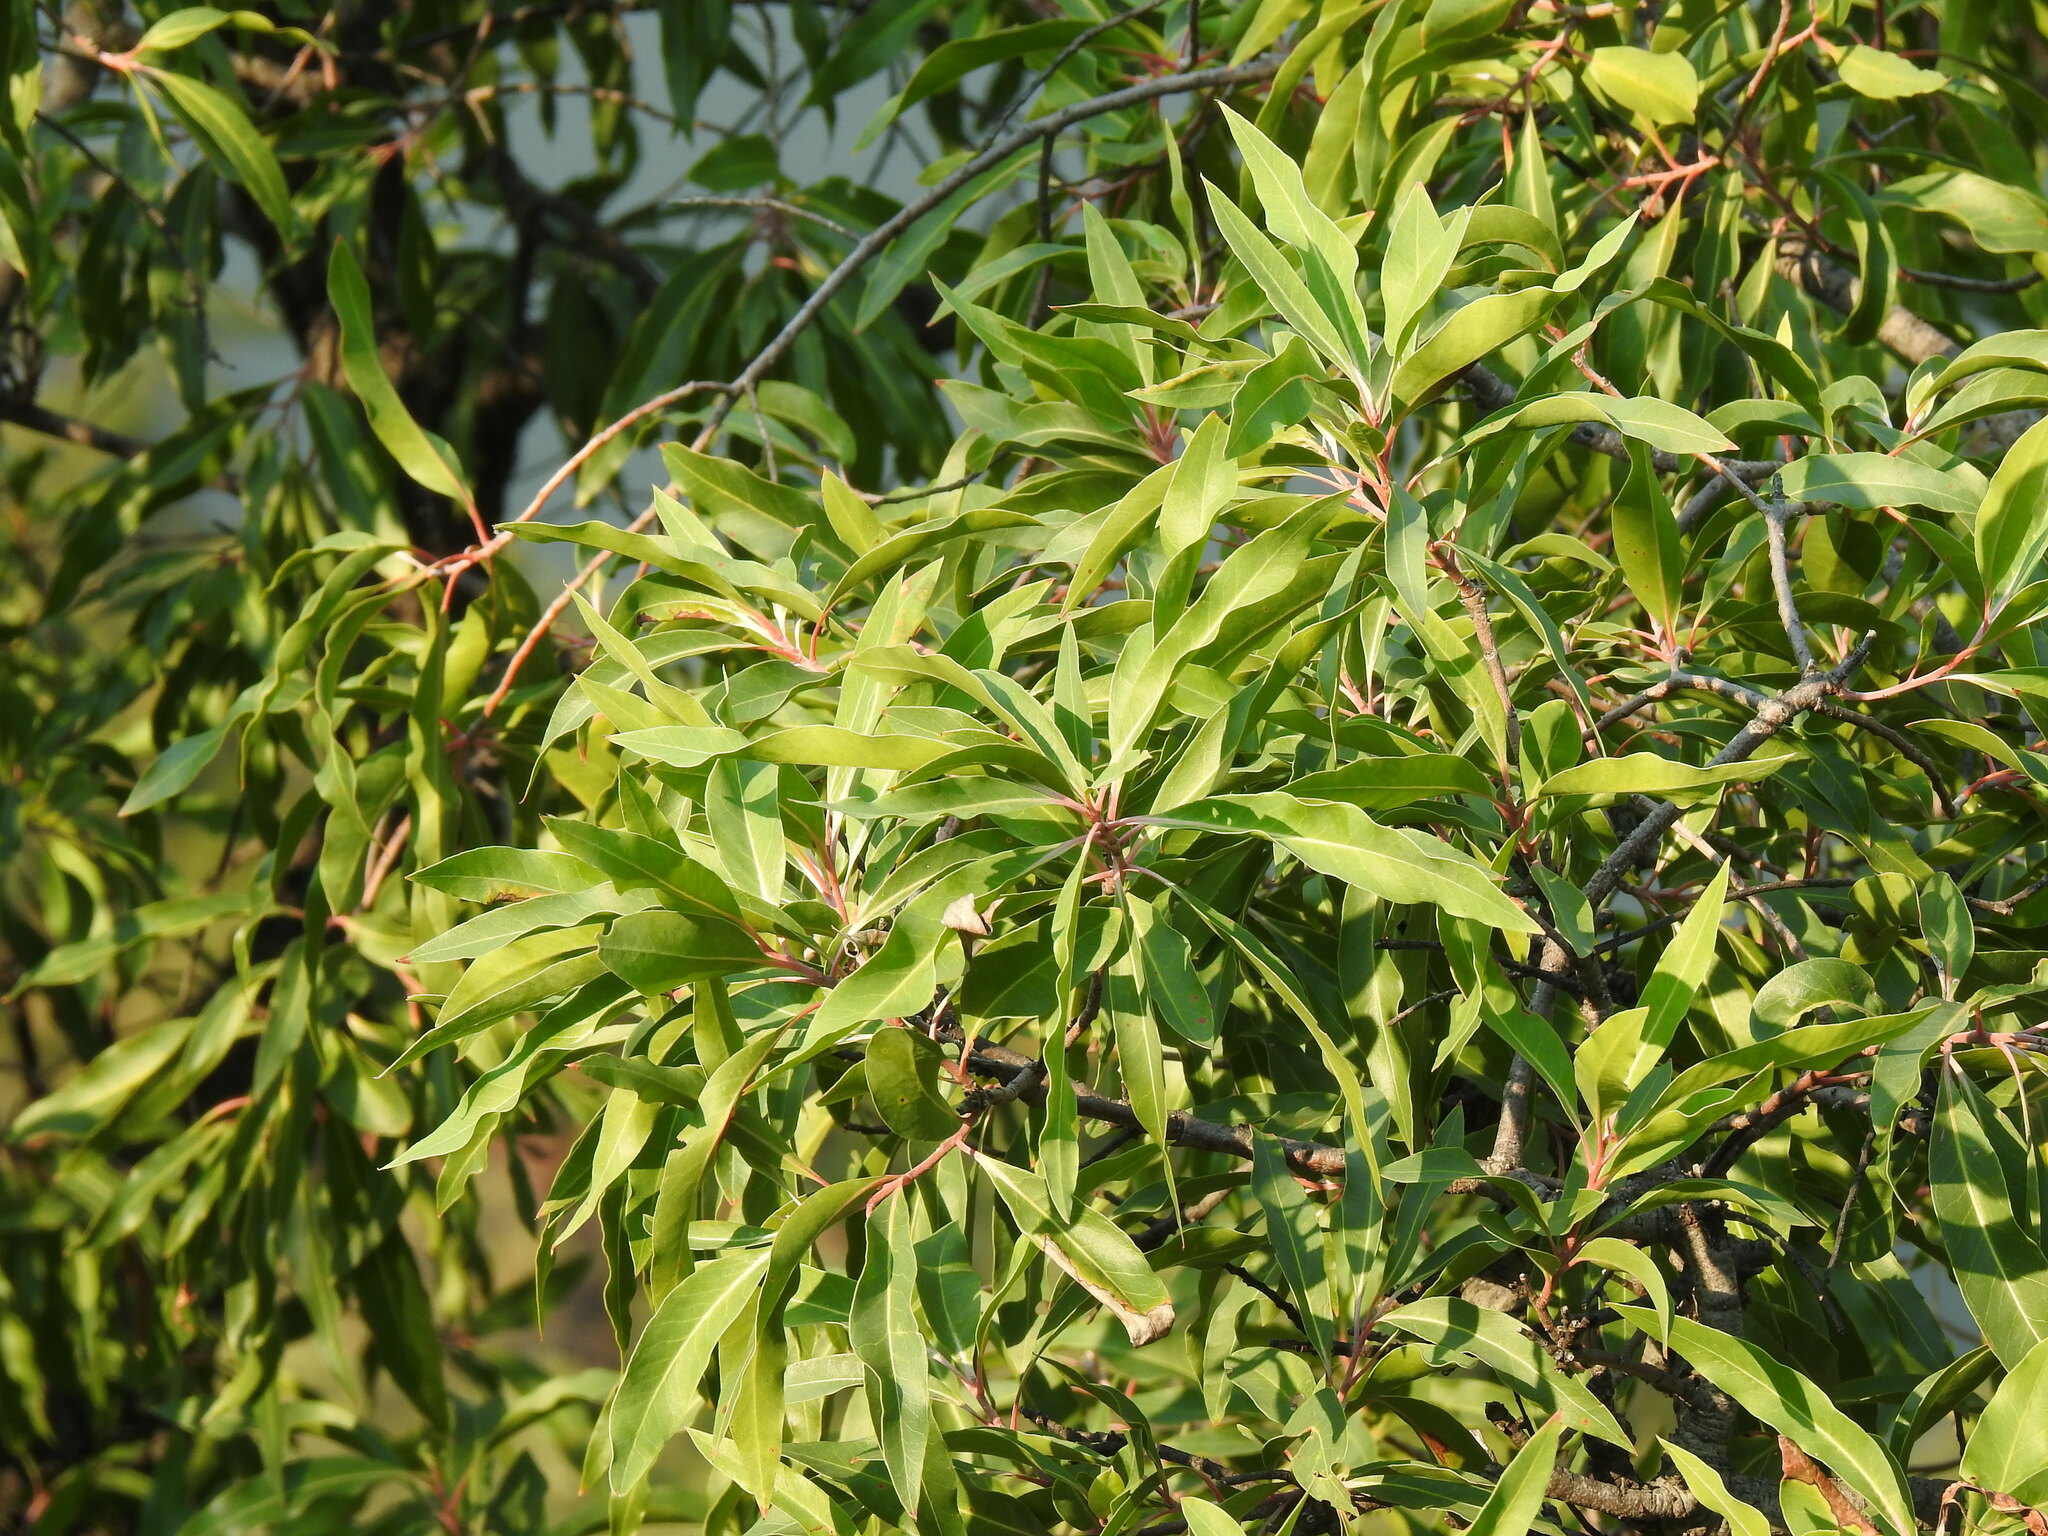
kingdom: Plantae
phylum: Tracheophyta
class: Magnoliopsida
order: Proteales
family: Proteaceae
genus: Faurea
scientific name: Faurea saligna
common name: African bean
